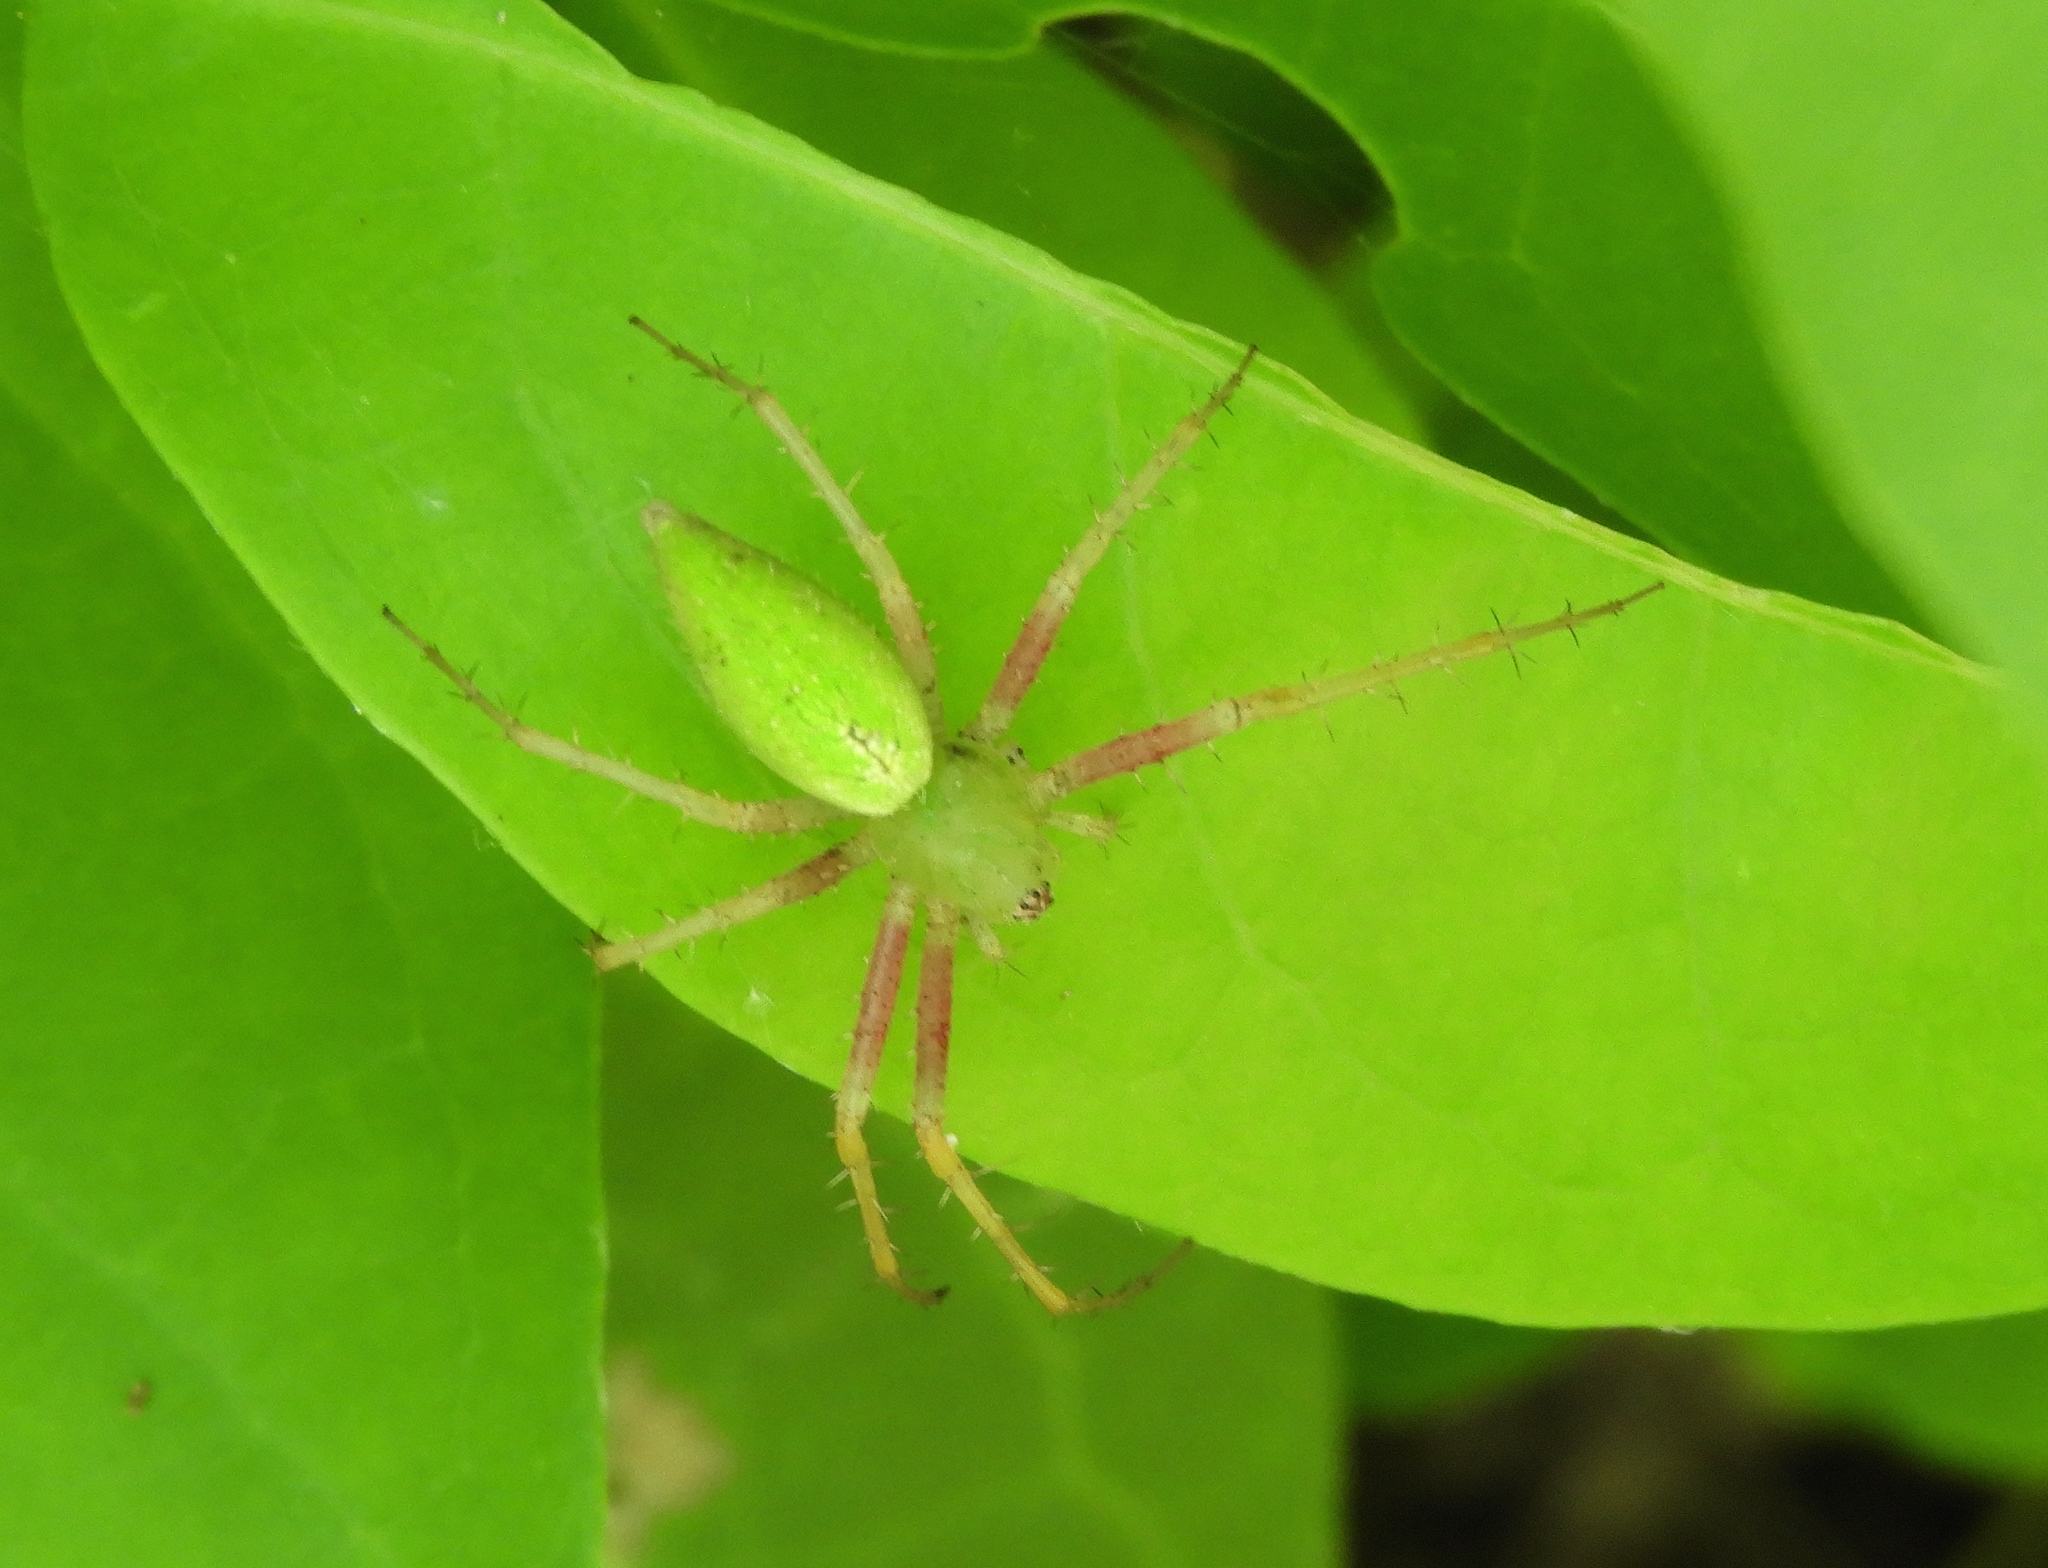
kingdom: Animalia
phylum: Arthropoda
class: Arachnida
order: Araneae
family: Oxyopidae
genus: Peucetia
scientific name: Peucetia
